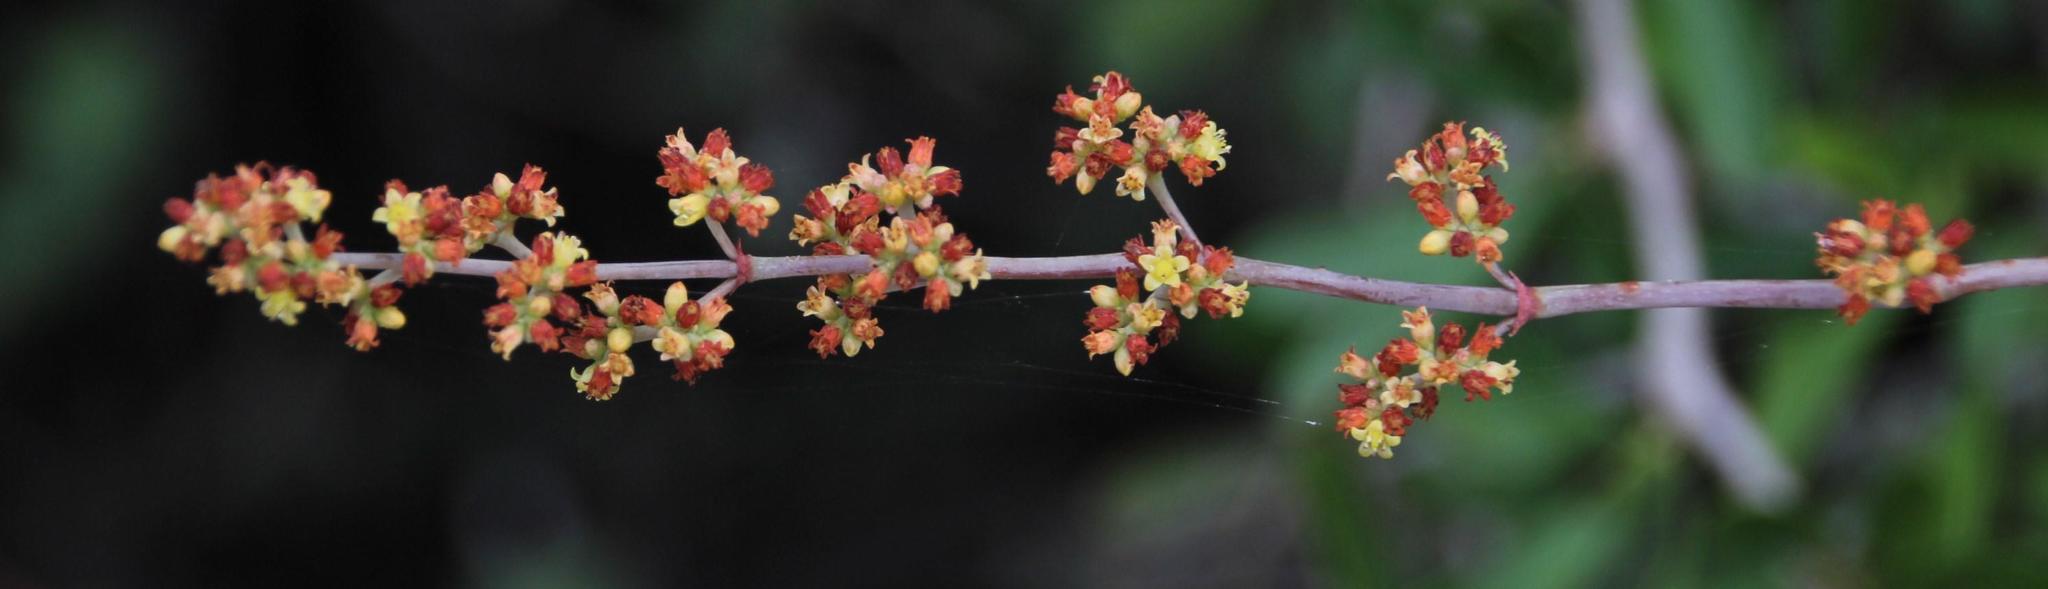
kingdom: Plantae
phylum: Tracheophyta
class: Magnoliopsida
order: Saxifragales
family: Crassulaceae
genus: Crassula
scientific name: Crassula perforata
